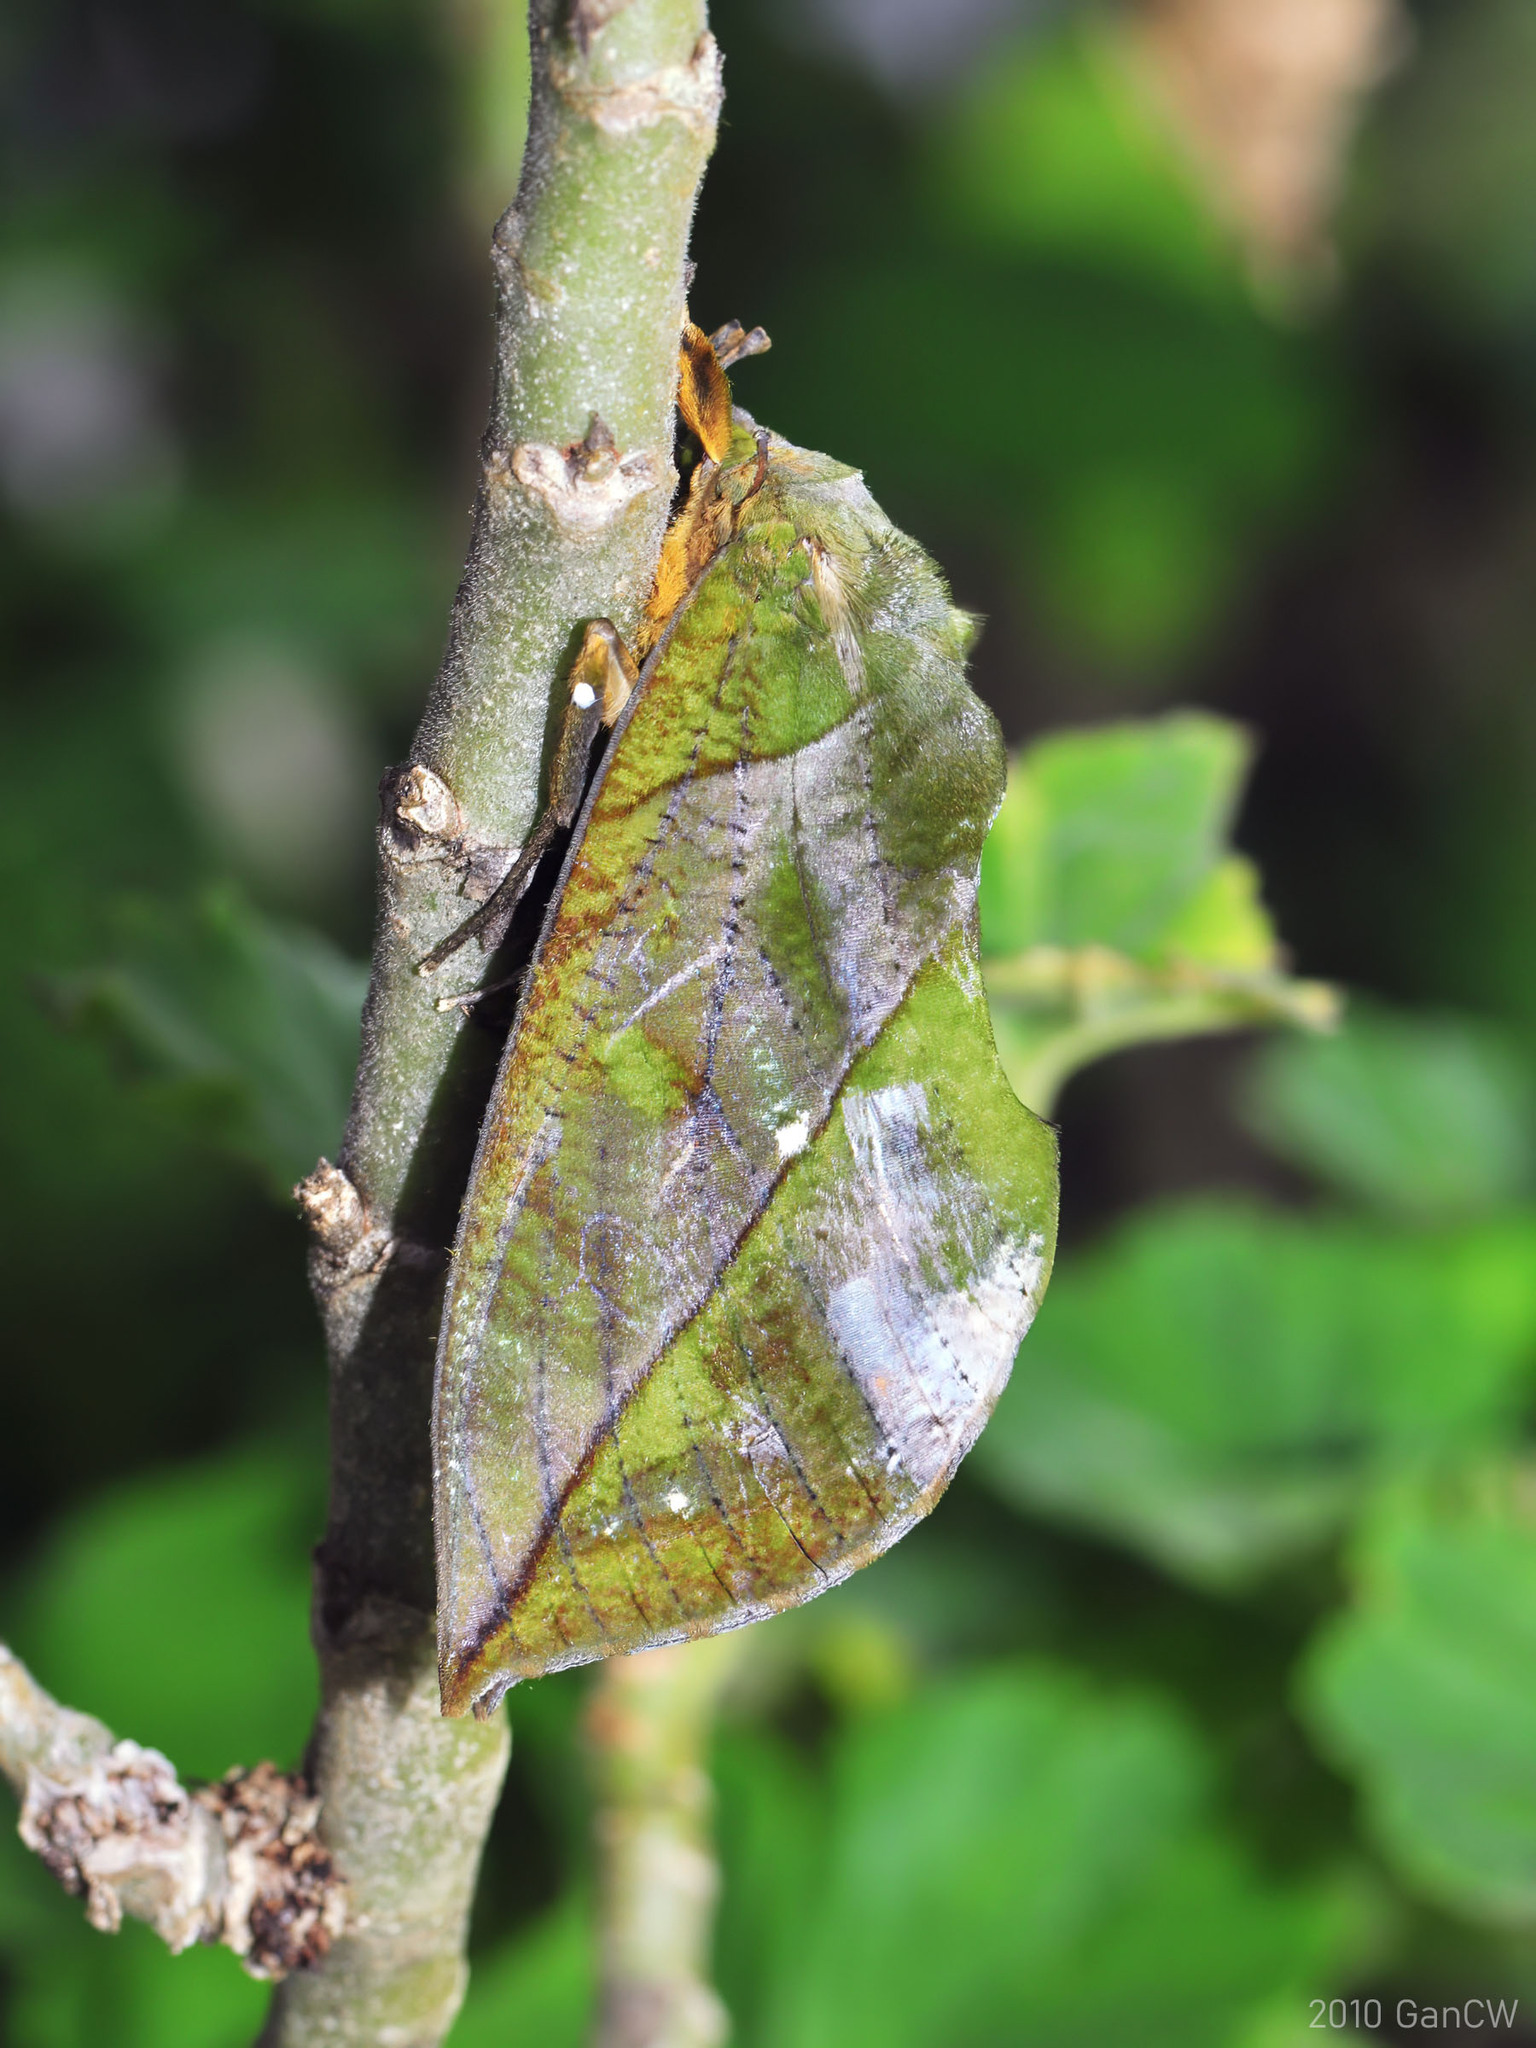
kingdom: Animalia
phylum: Arthropoda
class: Insecta
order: Lepidoptera
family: Erebidae
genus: Eudocima
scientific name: Eudocima sikhimensis
